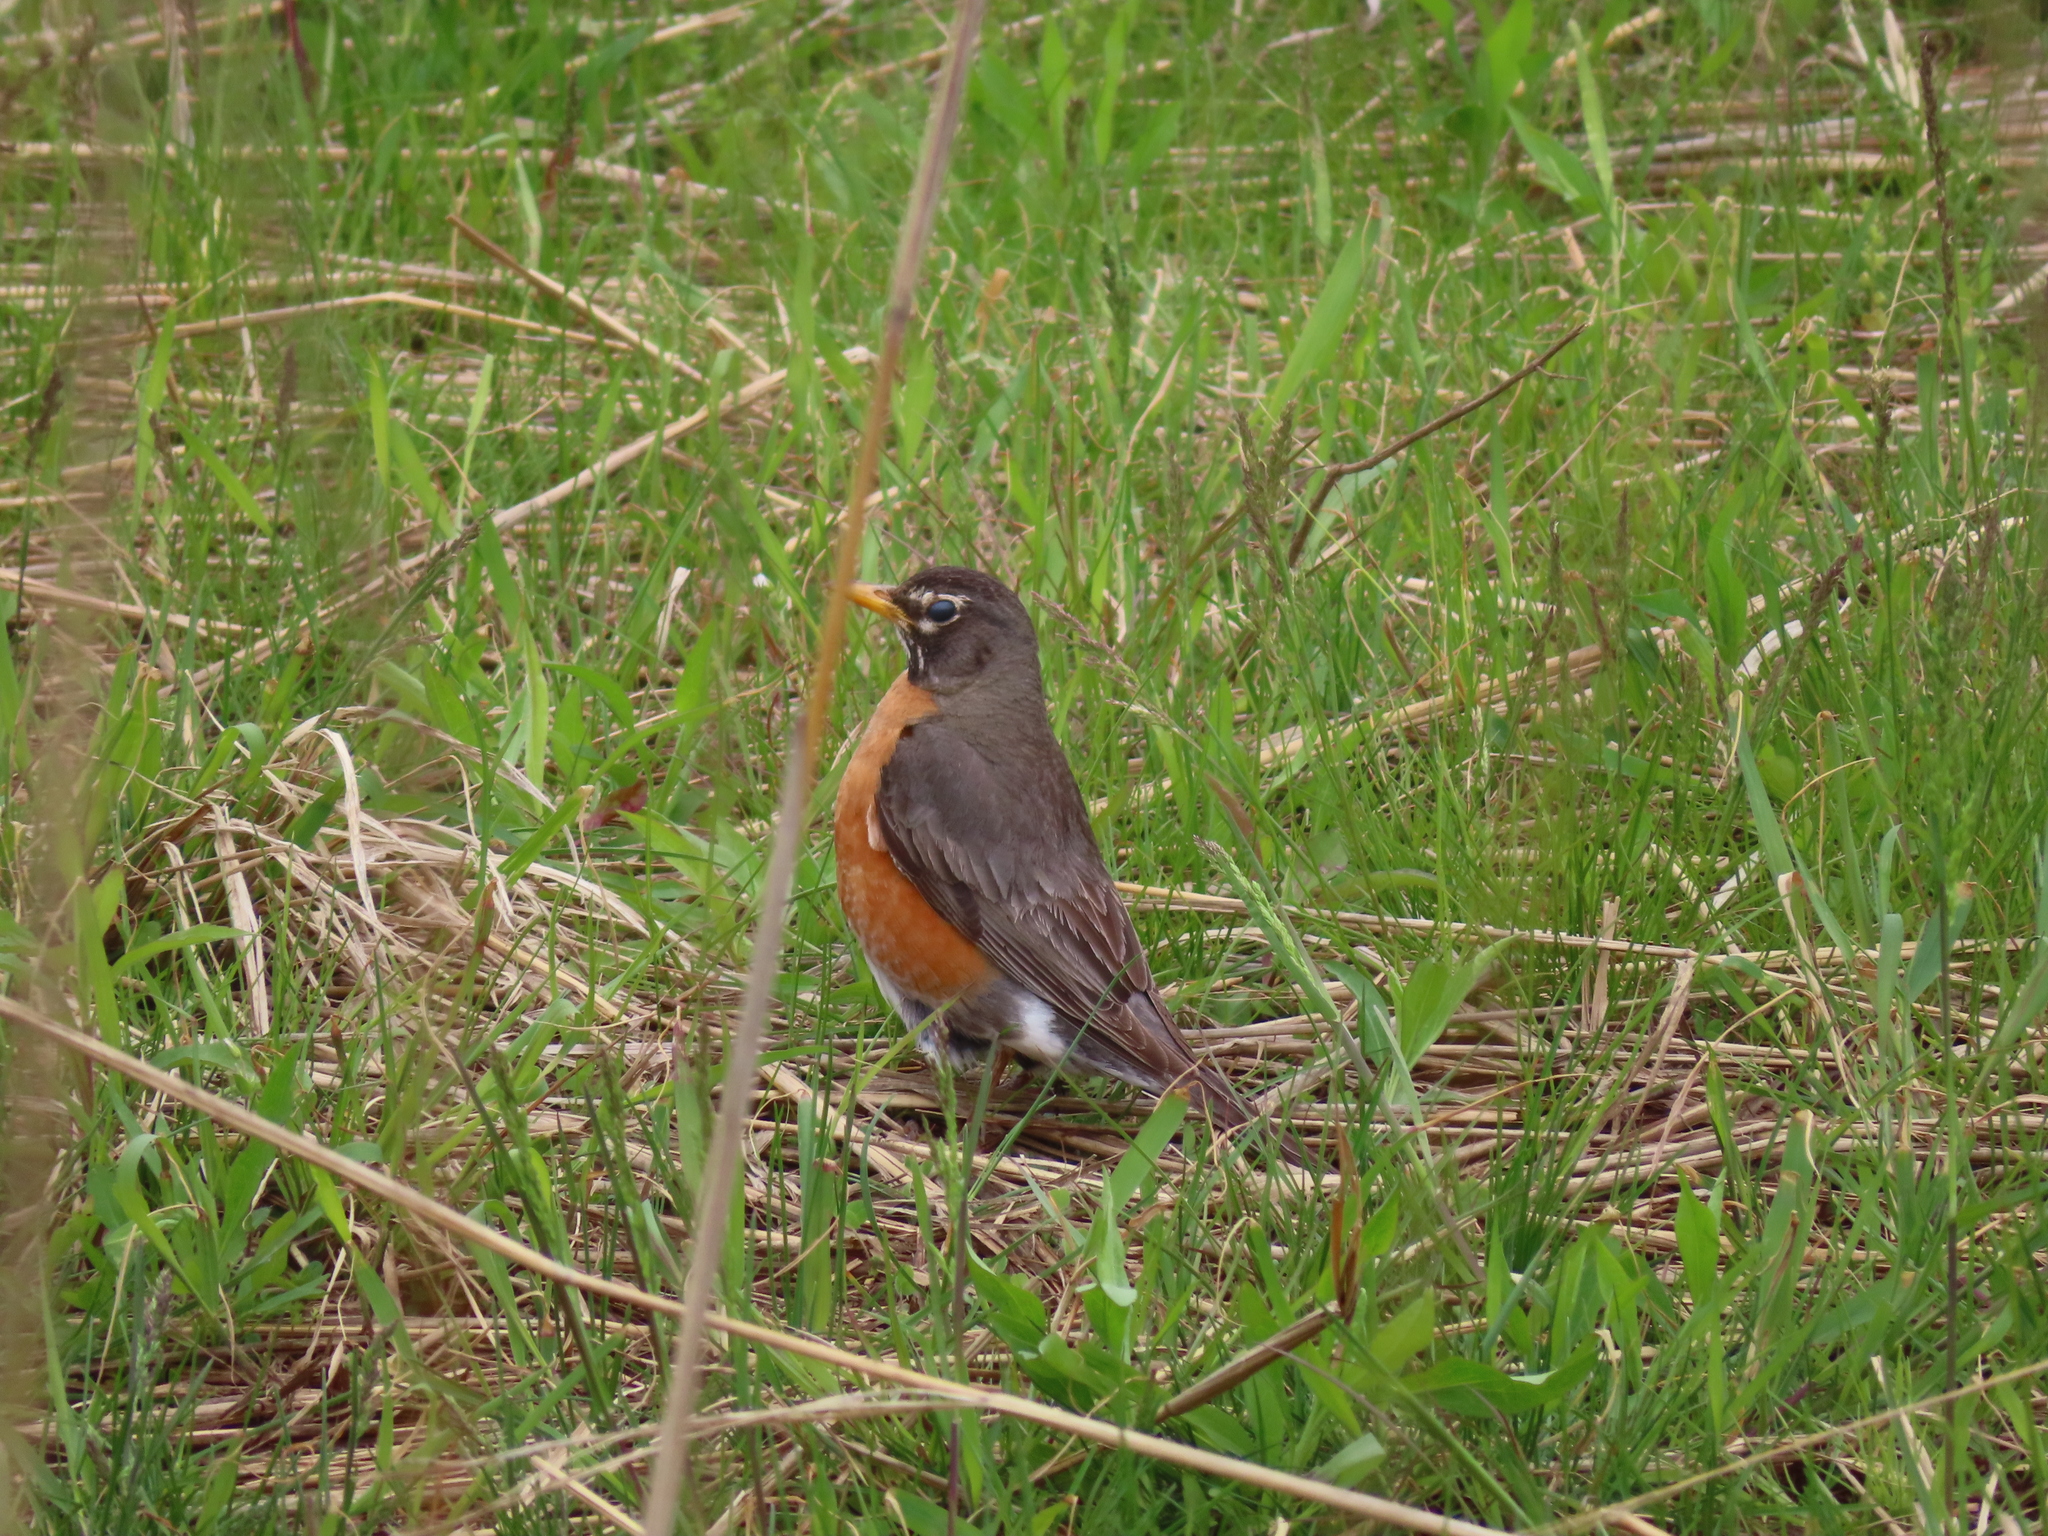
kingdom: Animalia
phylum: Chordata
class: Aves
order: Passeriformes
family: Turdidae
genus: Turdus
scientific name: Turdus migratorius
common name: American robin
